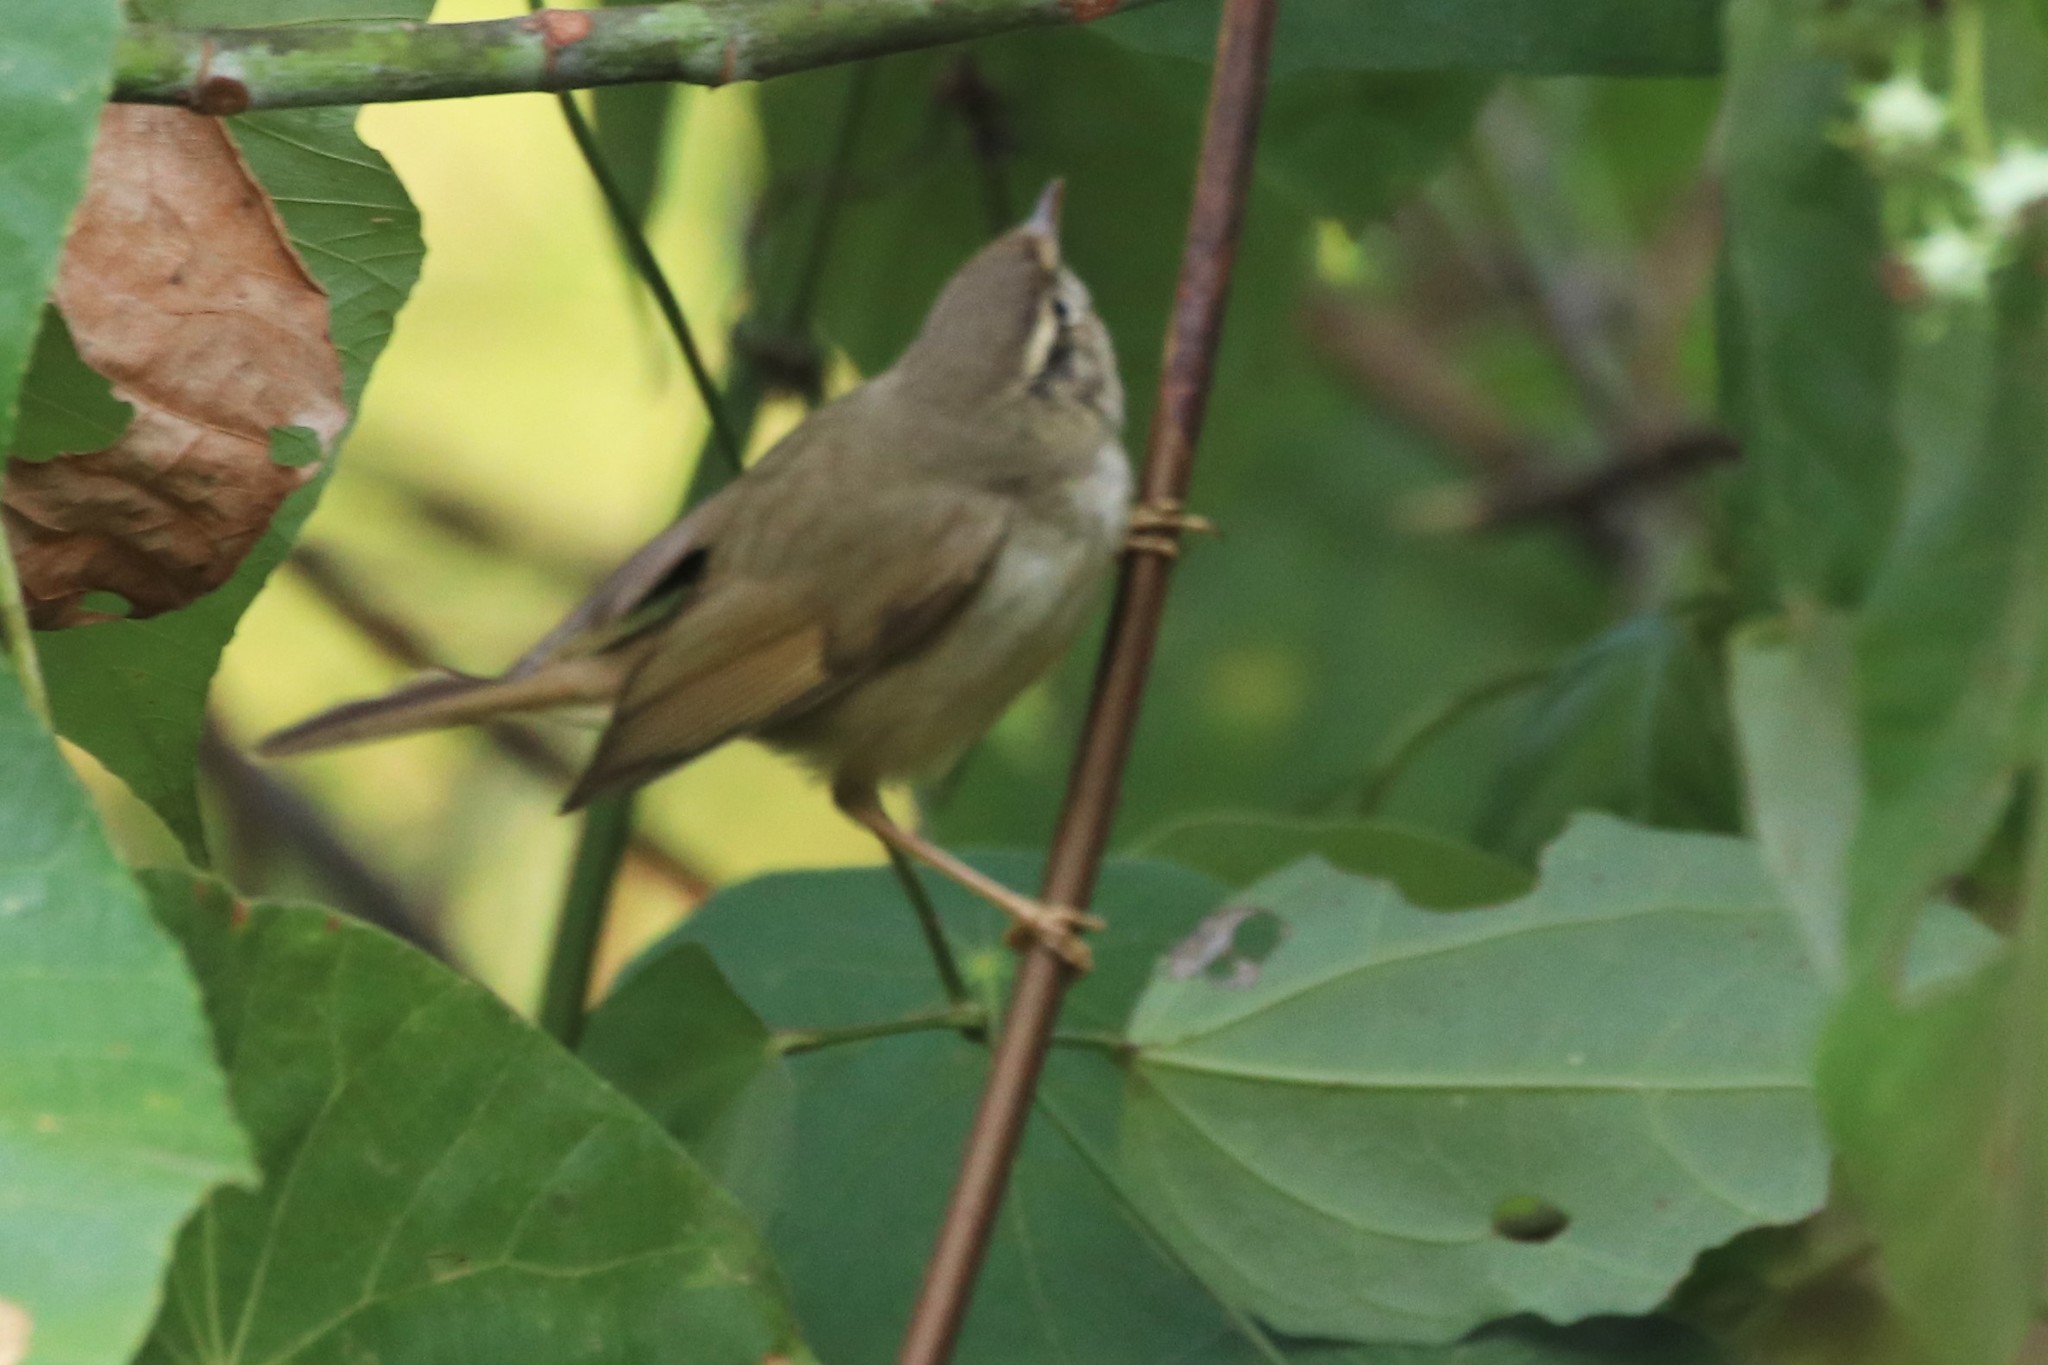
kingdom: Animalia
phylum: Chordata
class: Aves
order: Passeriformes
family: Phylloscopidae
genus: Phylloscopus
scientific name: Phylloscopus schwarzi
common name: Radde's warbler
